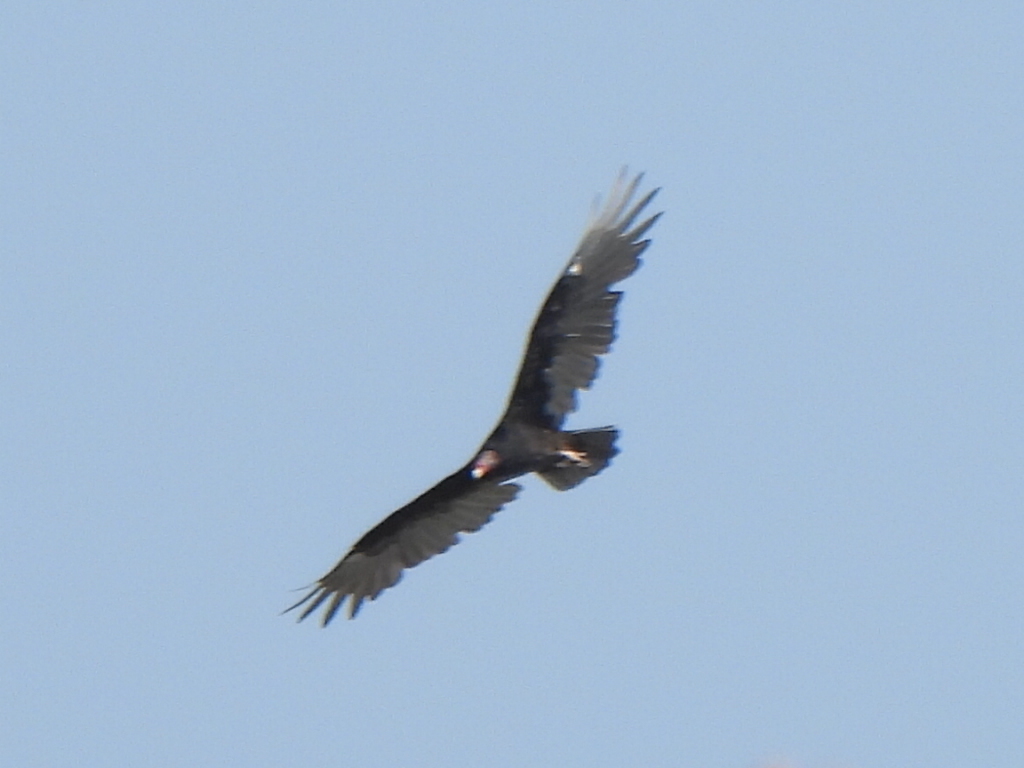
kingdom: Animalia
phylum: Chordata
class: Aves
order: Accipitriformes
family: Cathartidae
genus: Cathartes
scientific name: Cathartes aura
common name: Turkey vulture
